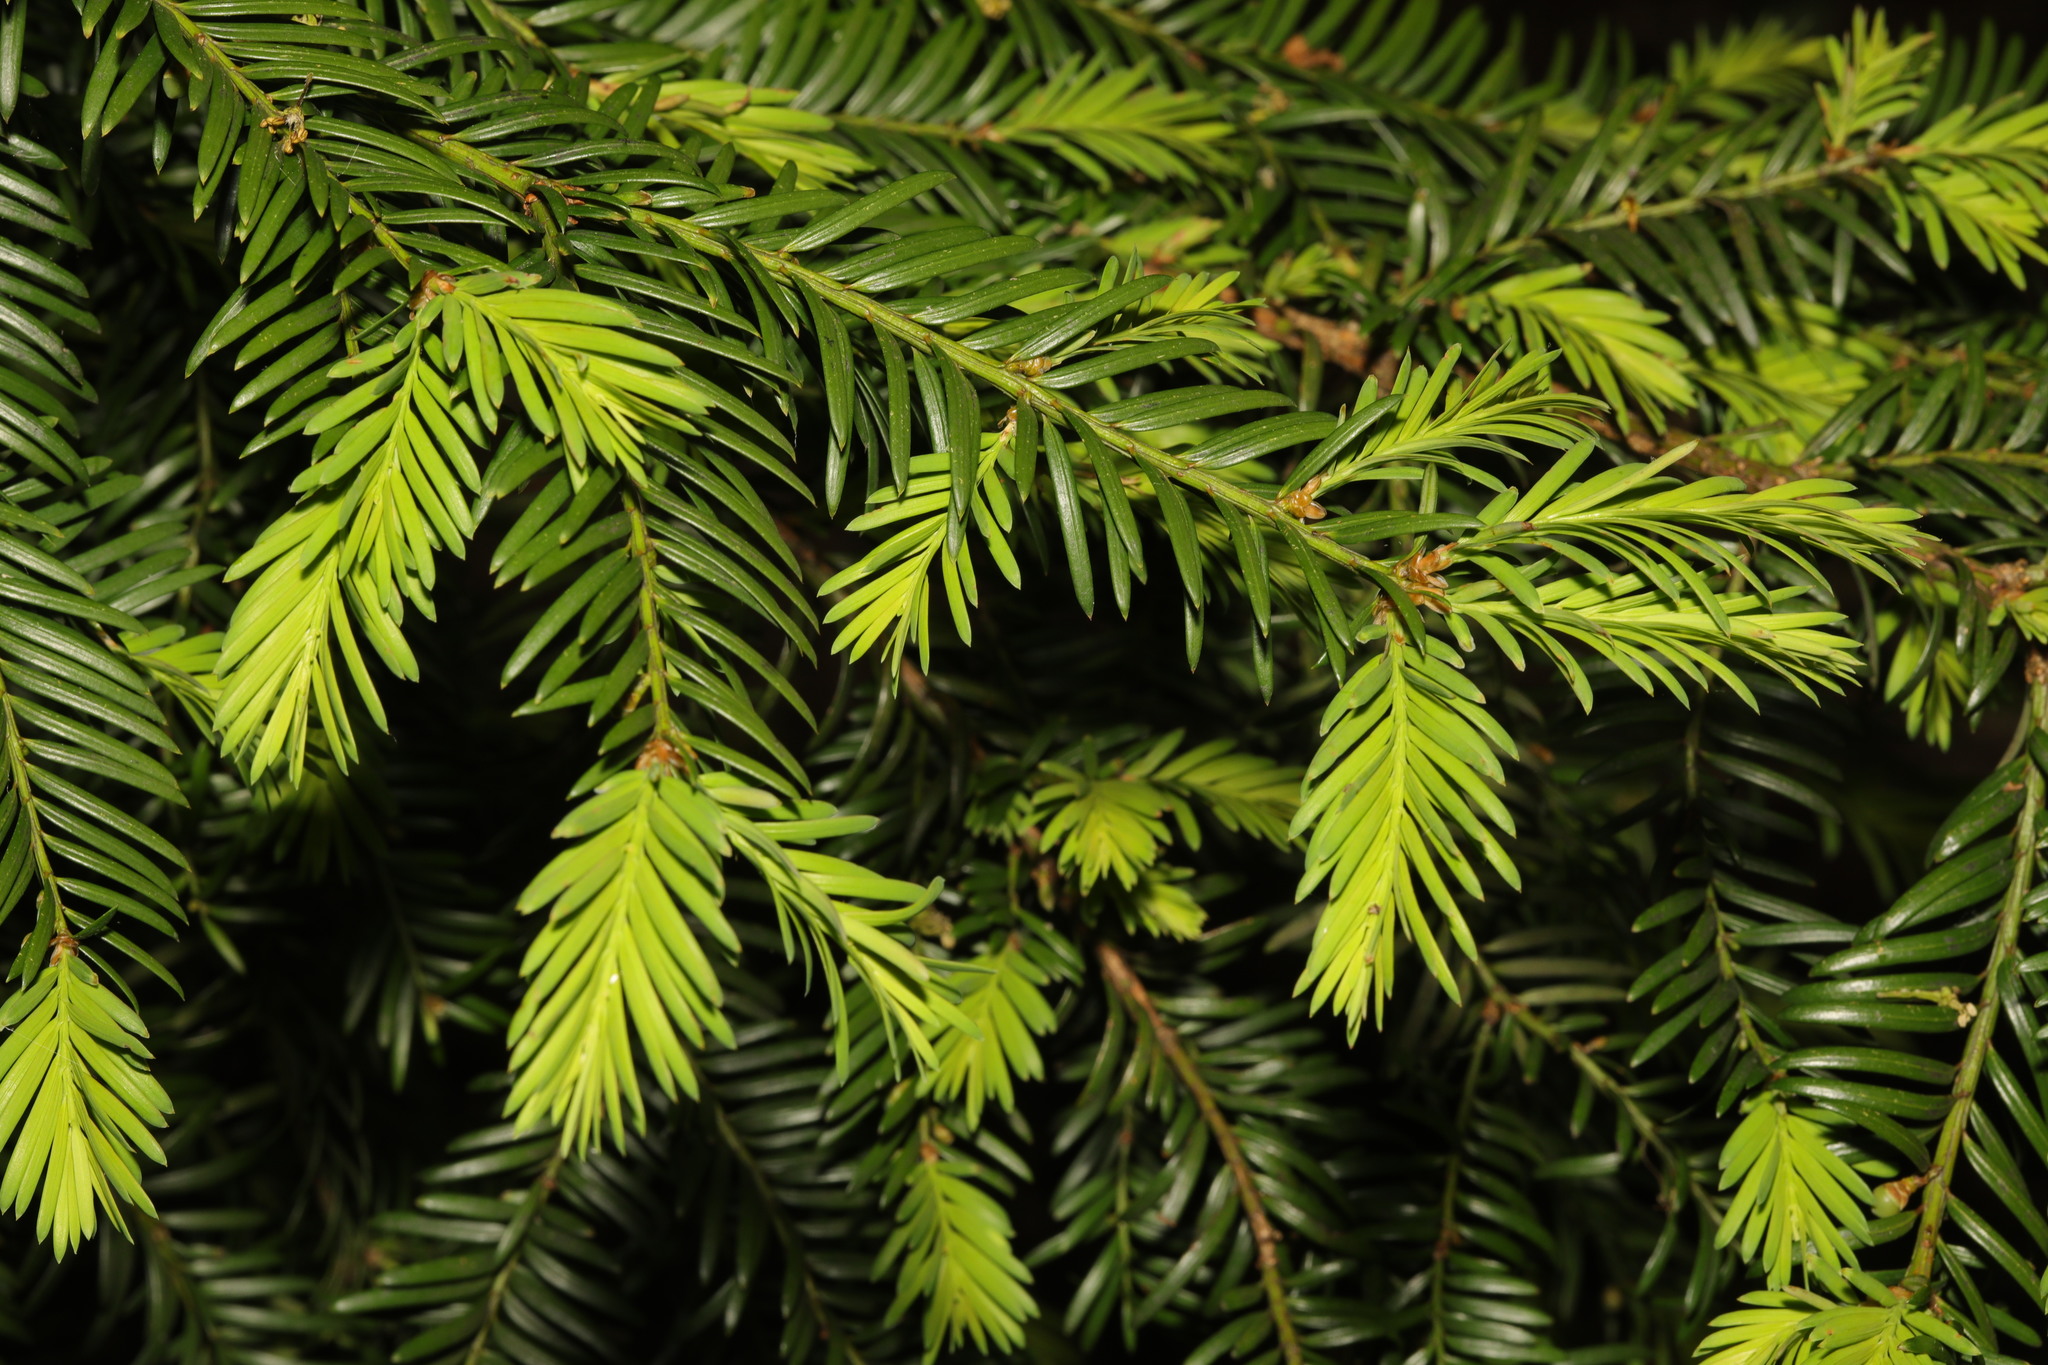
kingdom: Plantae
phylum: Tracheophyta
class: Pinopsida
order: Pinales
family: Taxaceae
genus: Taxus
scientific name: Taxus baccata
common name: Yew
